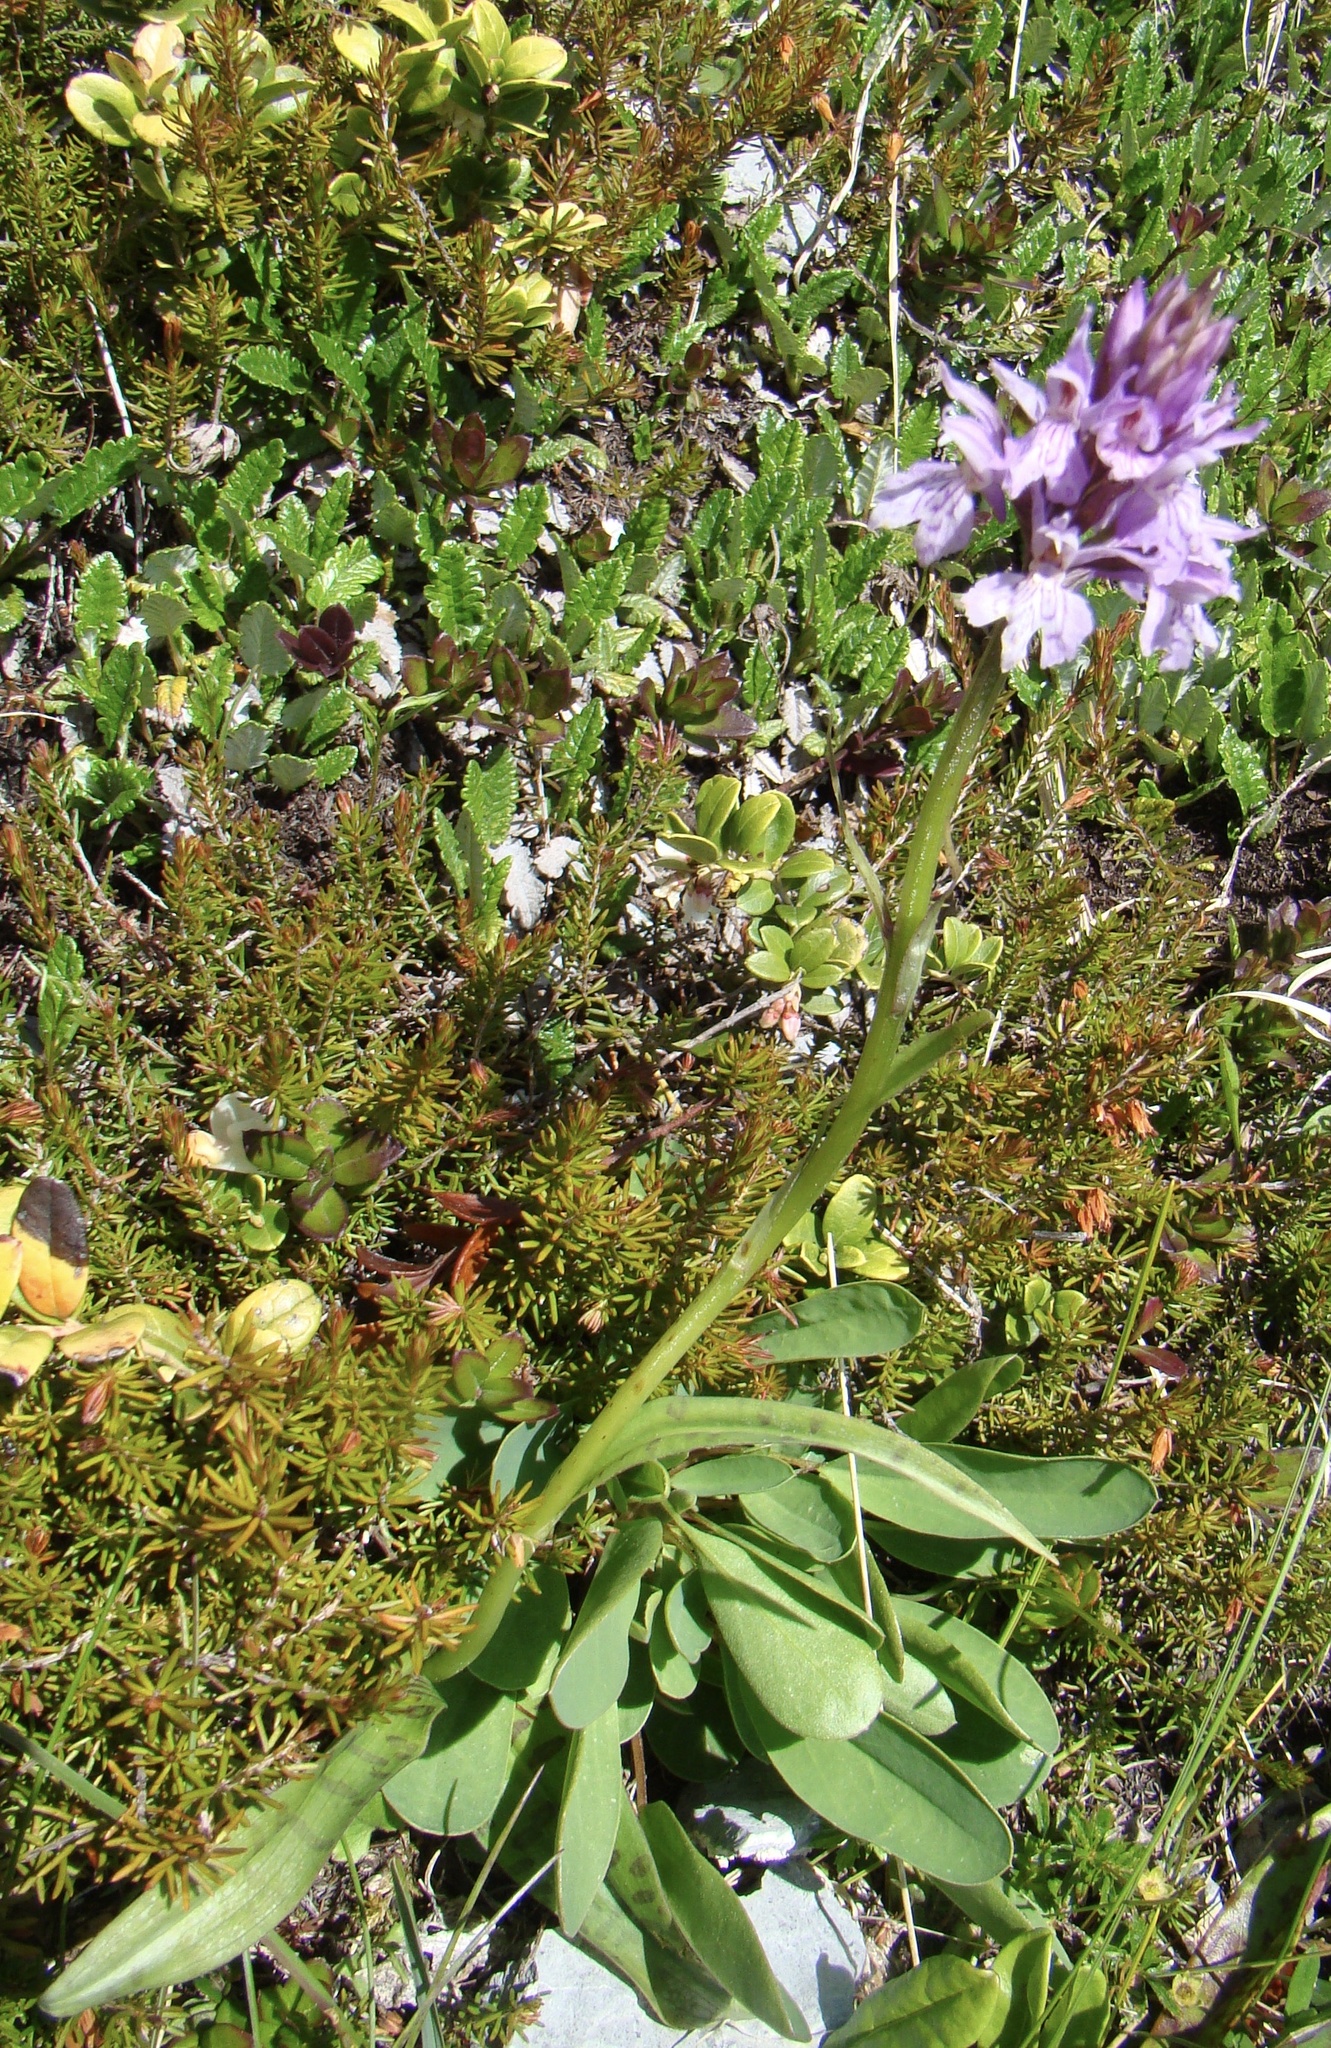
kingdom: Plantae
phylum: Tracheophyta
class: Liliopsida
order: Asparagales
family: Orchidaceae
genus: Dactylorhiza
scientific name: Dactylorhiza maculata
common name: Heath spotted-orchid
